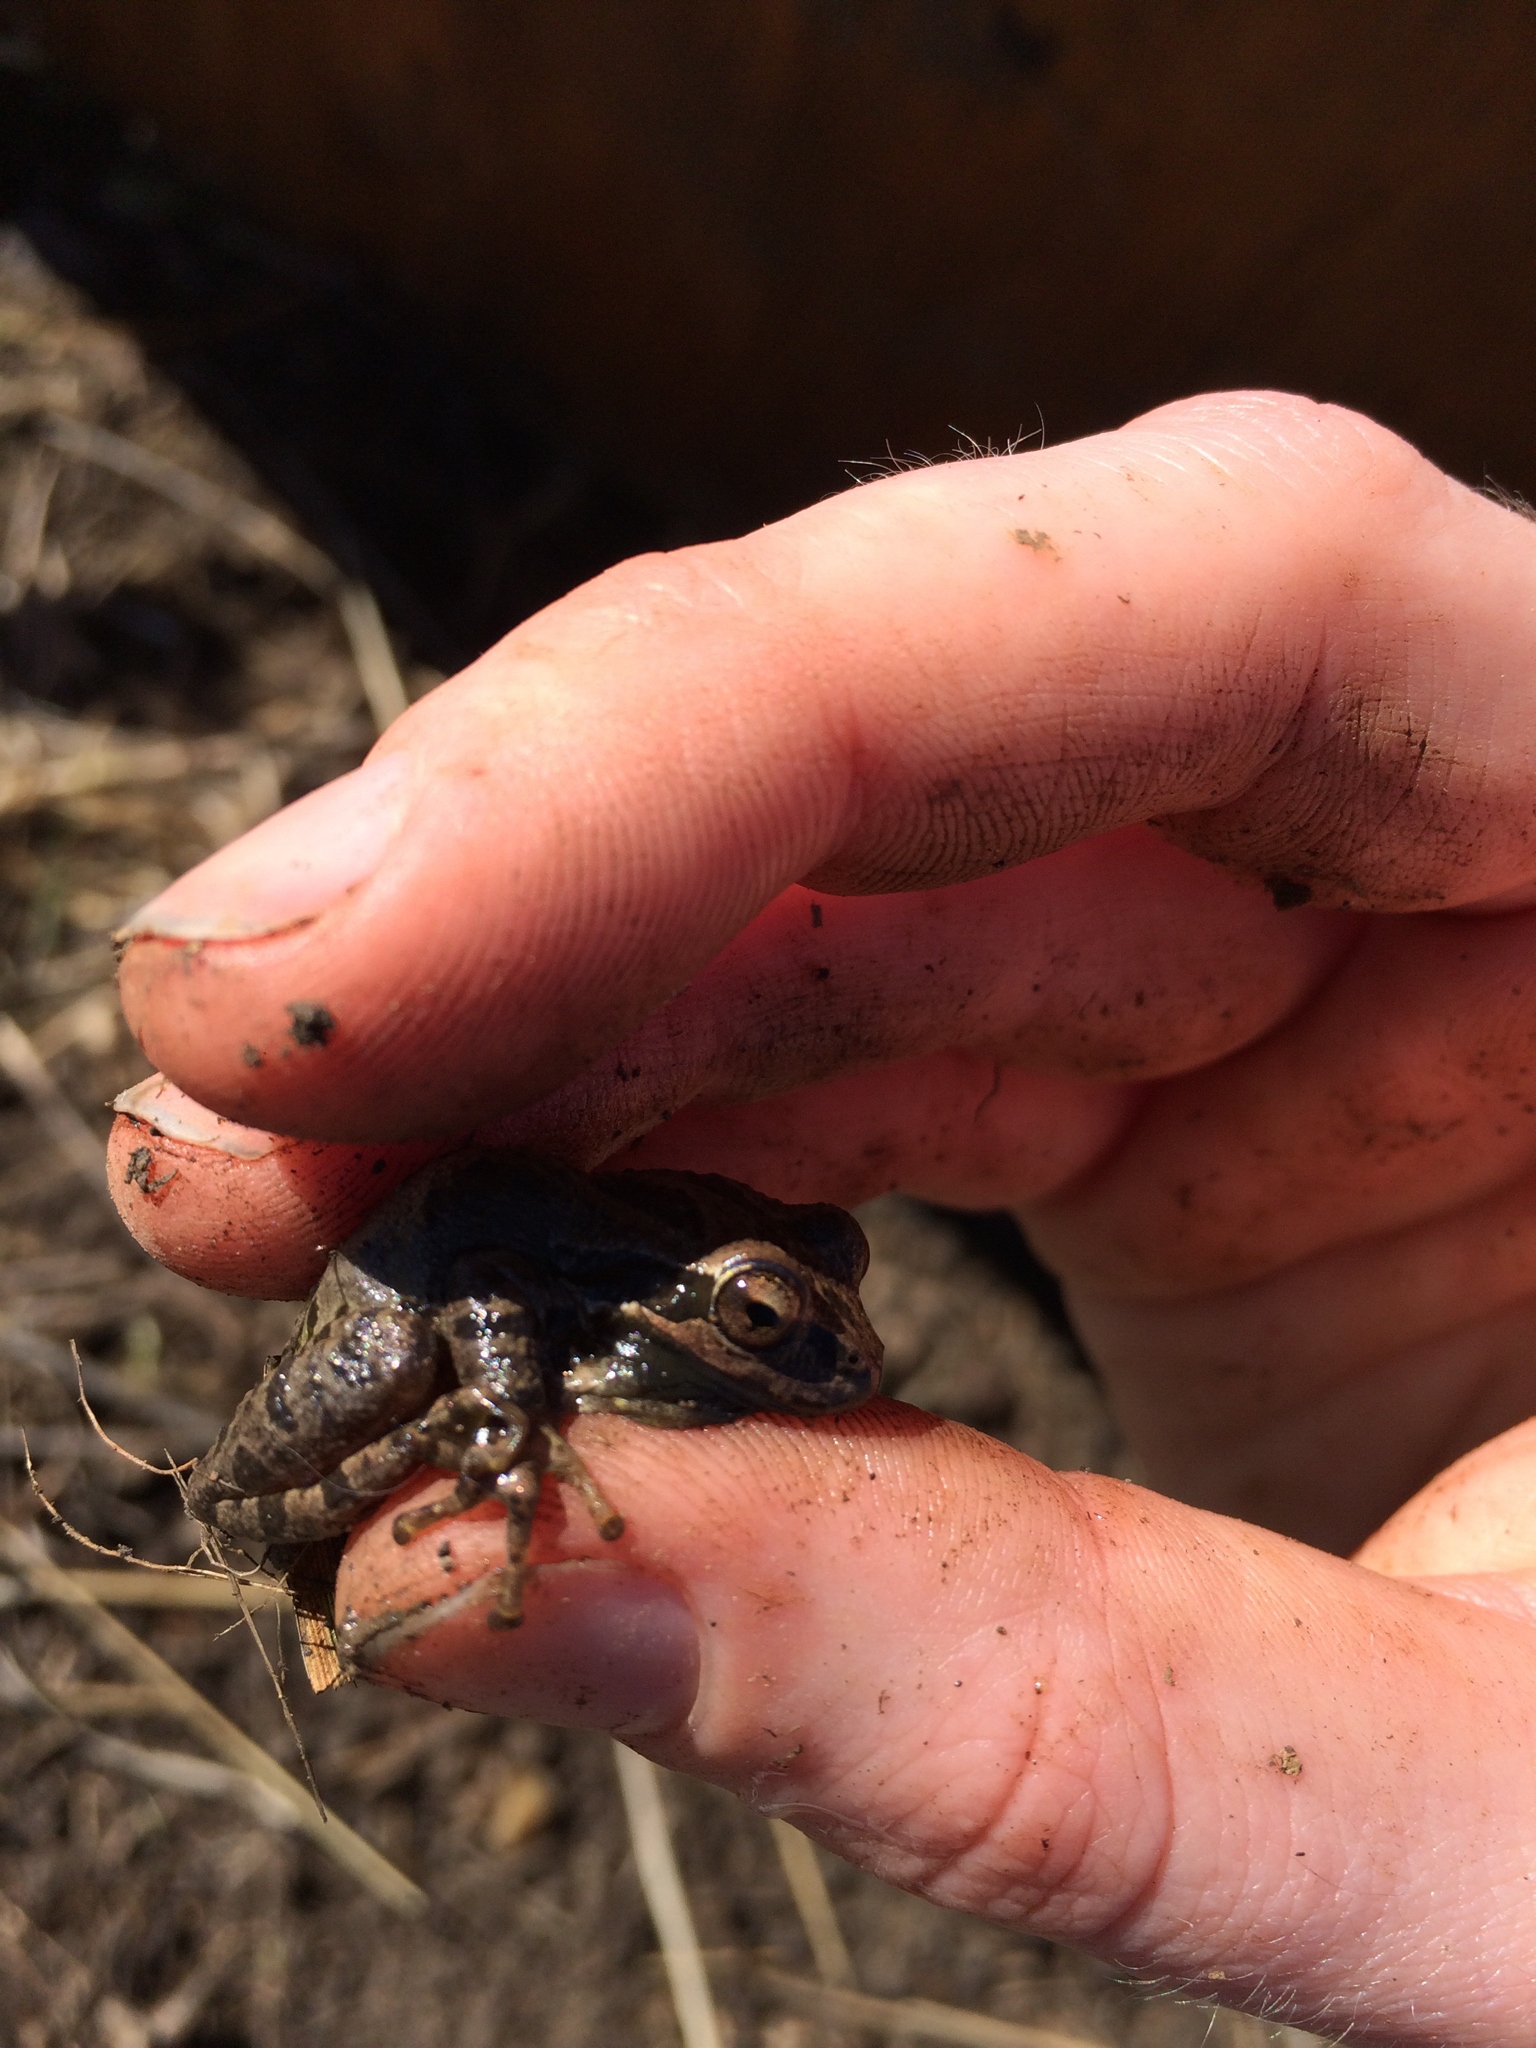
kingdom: Animalia
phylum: Chordata
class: Amphibia
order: Anura
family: Hylidae
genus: Pseudacris
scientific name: Pseudacris regilla
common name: Pacific chorus frog
